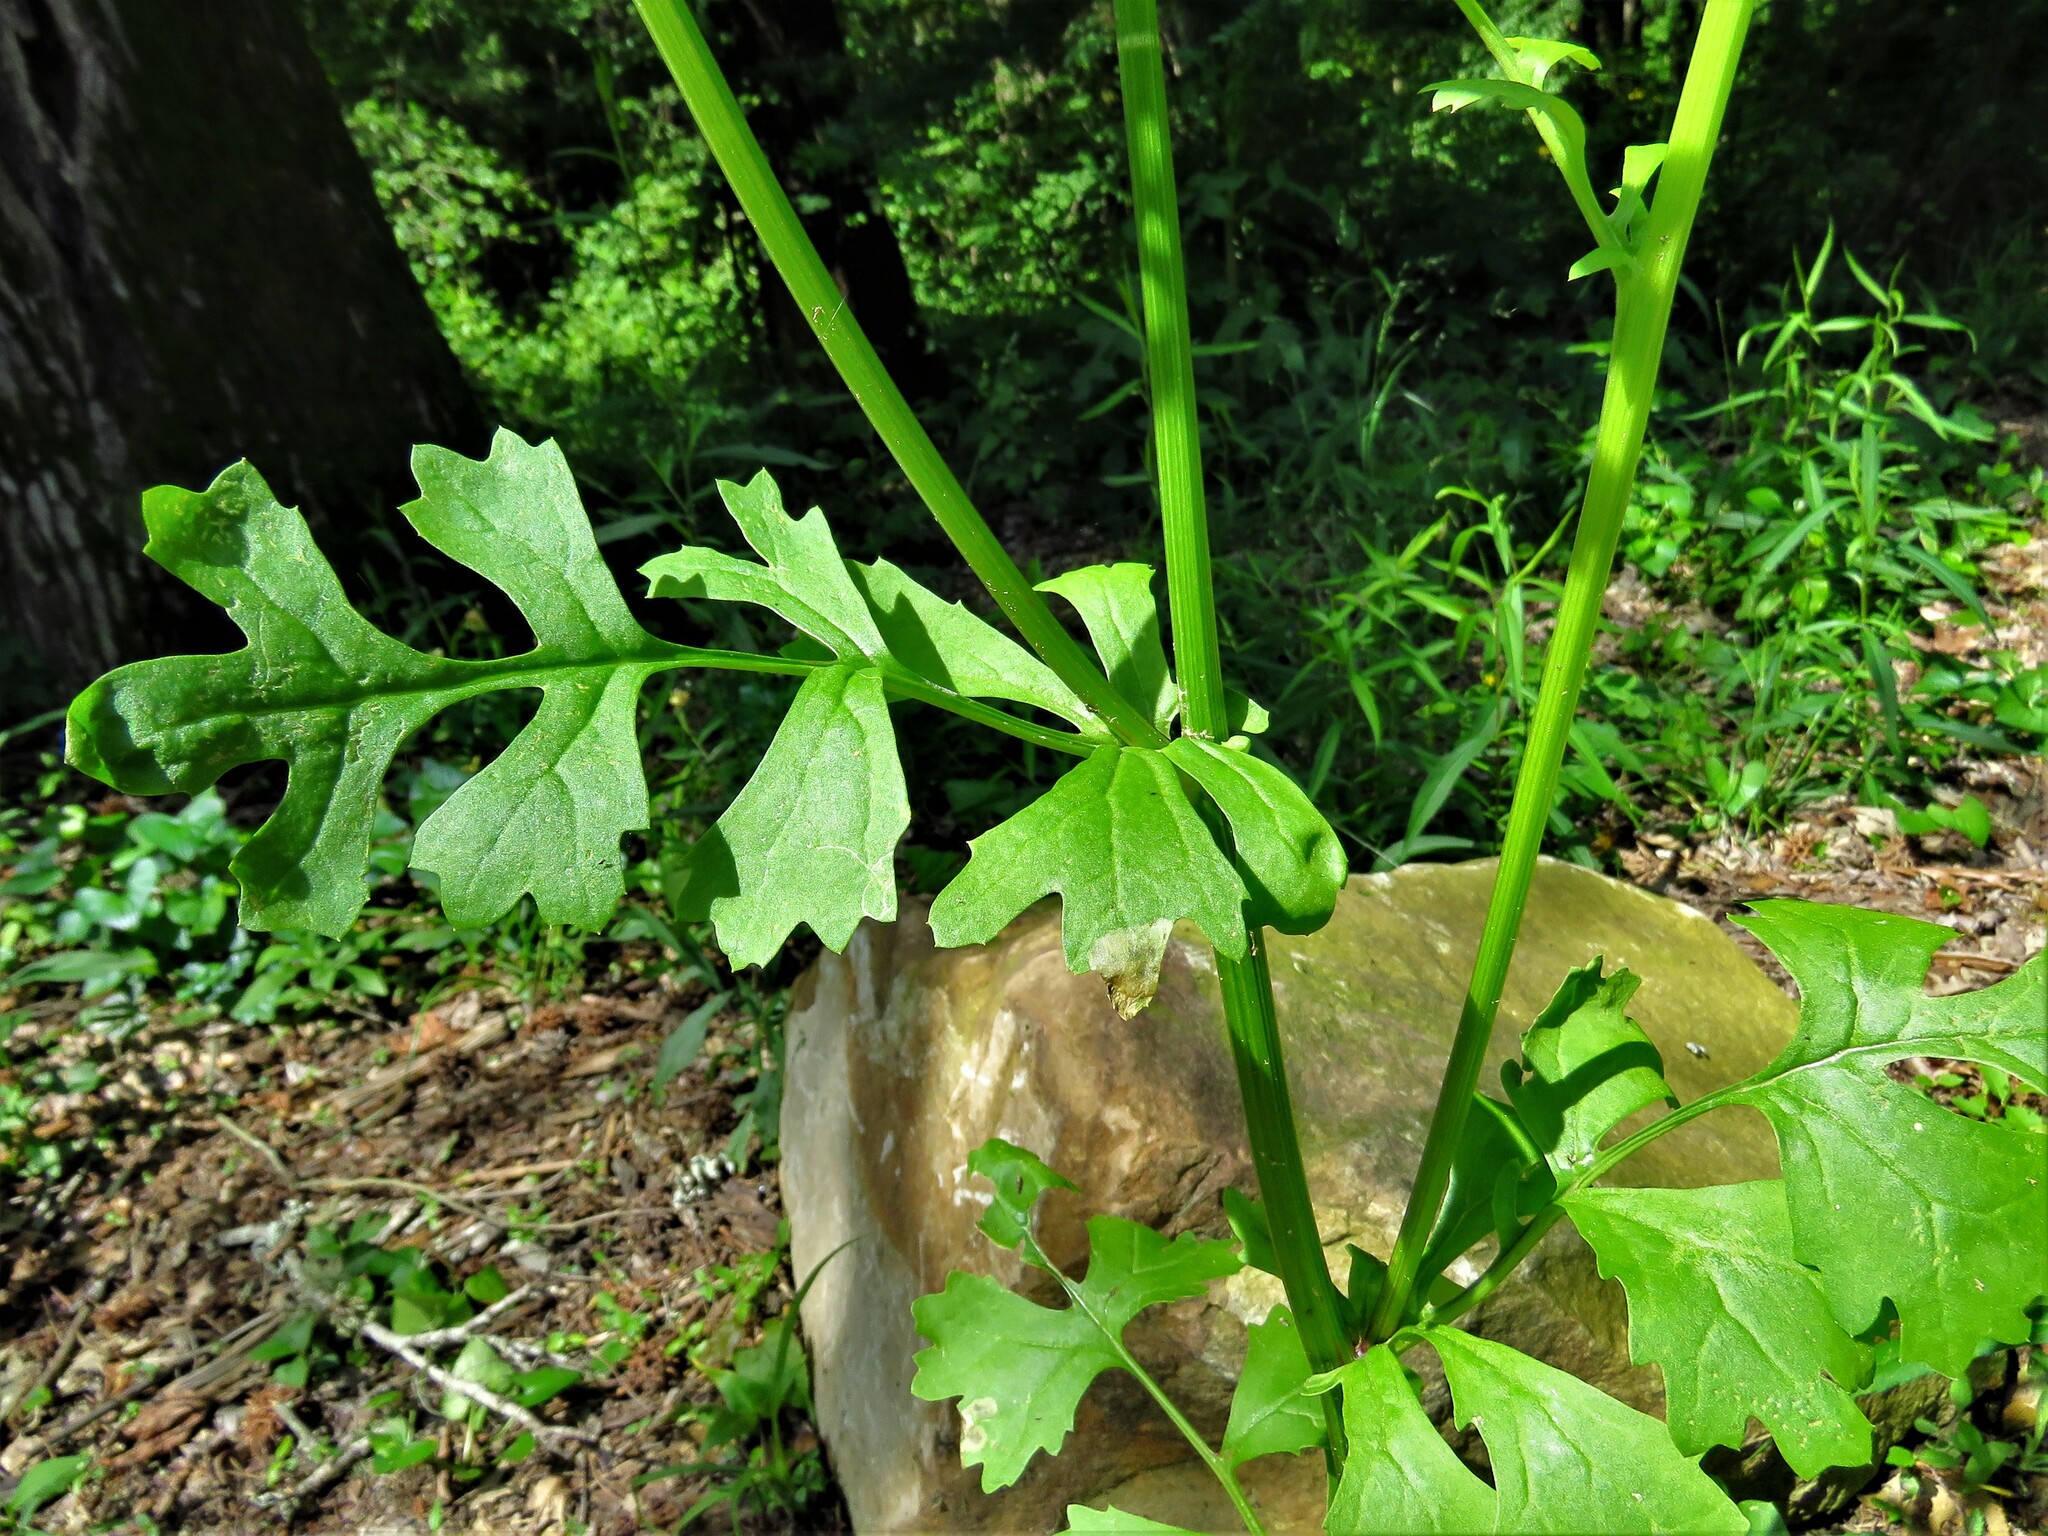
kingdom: Plantae
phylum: Tracheophyta
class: Magnoliopsida
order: Asterales
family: Asteraceae
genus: Packera
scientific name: Packera glabella
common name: Butterweed
